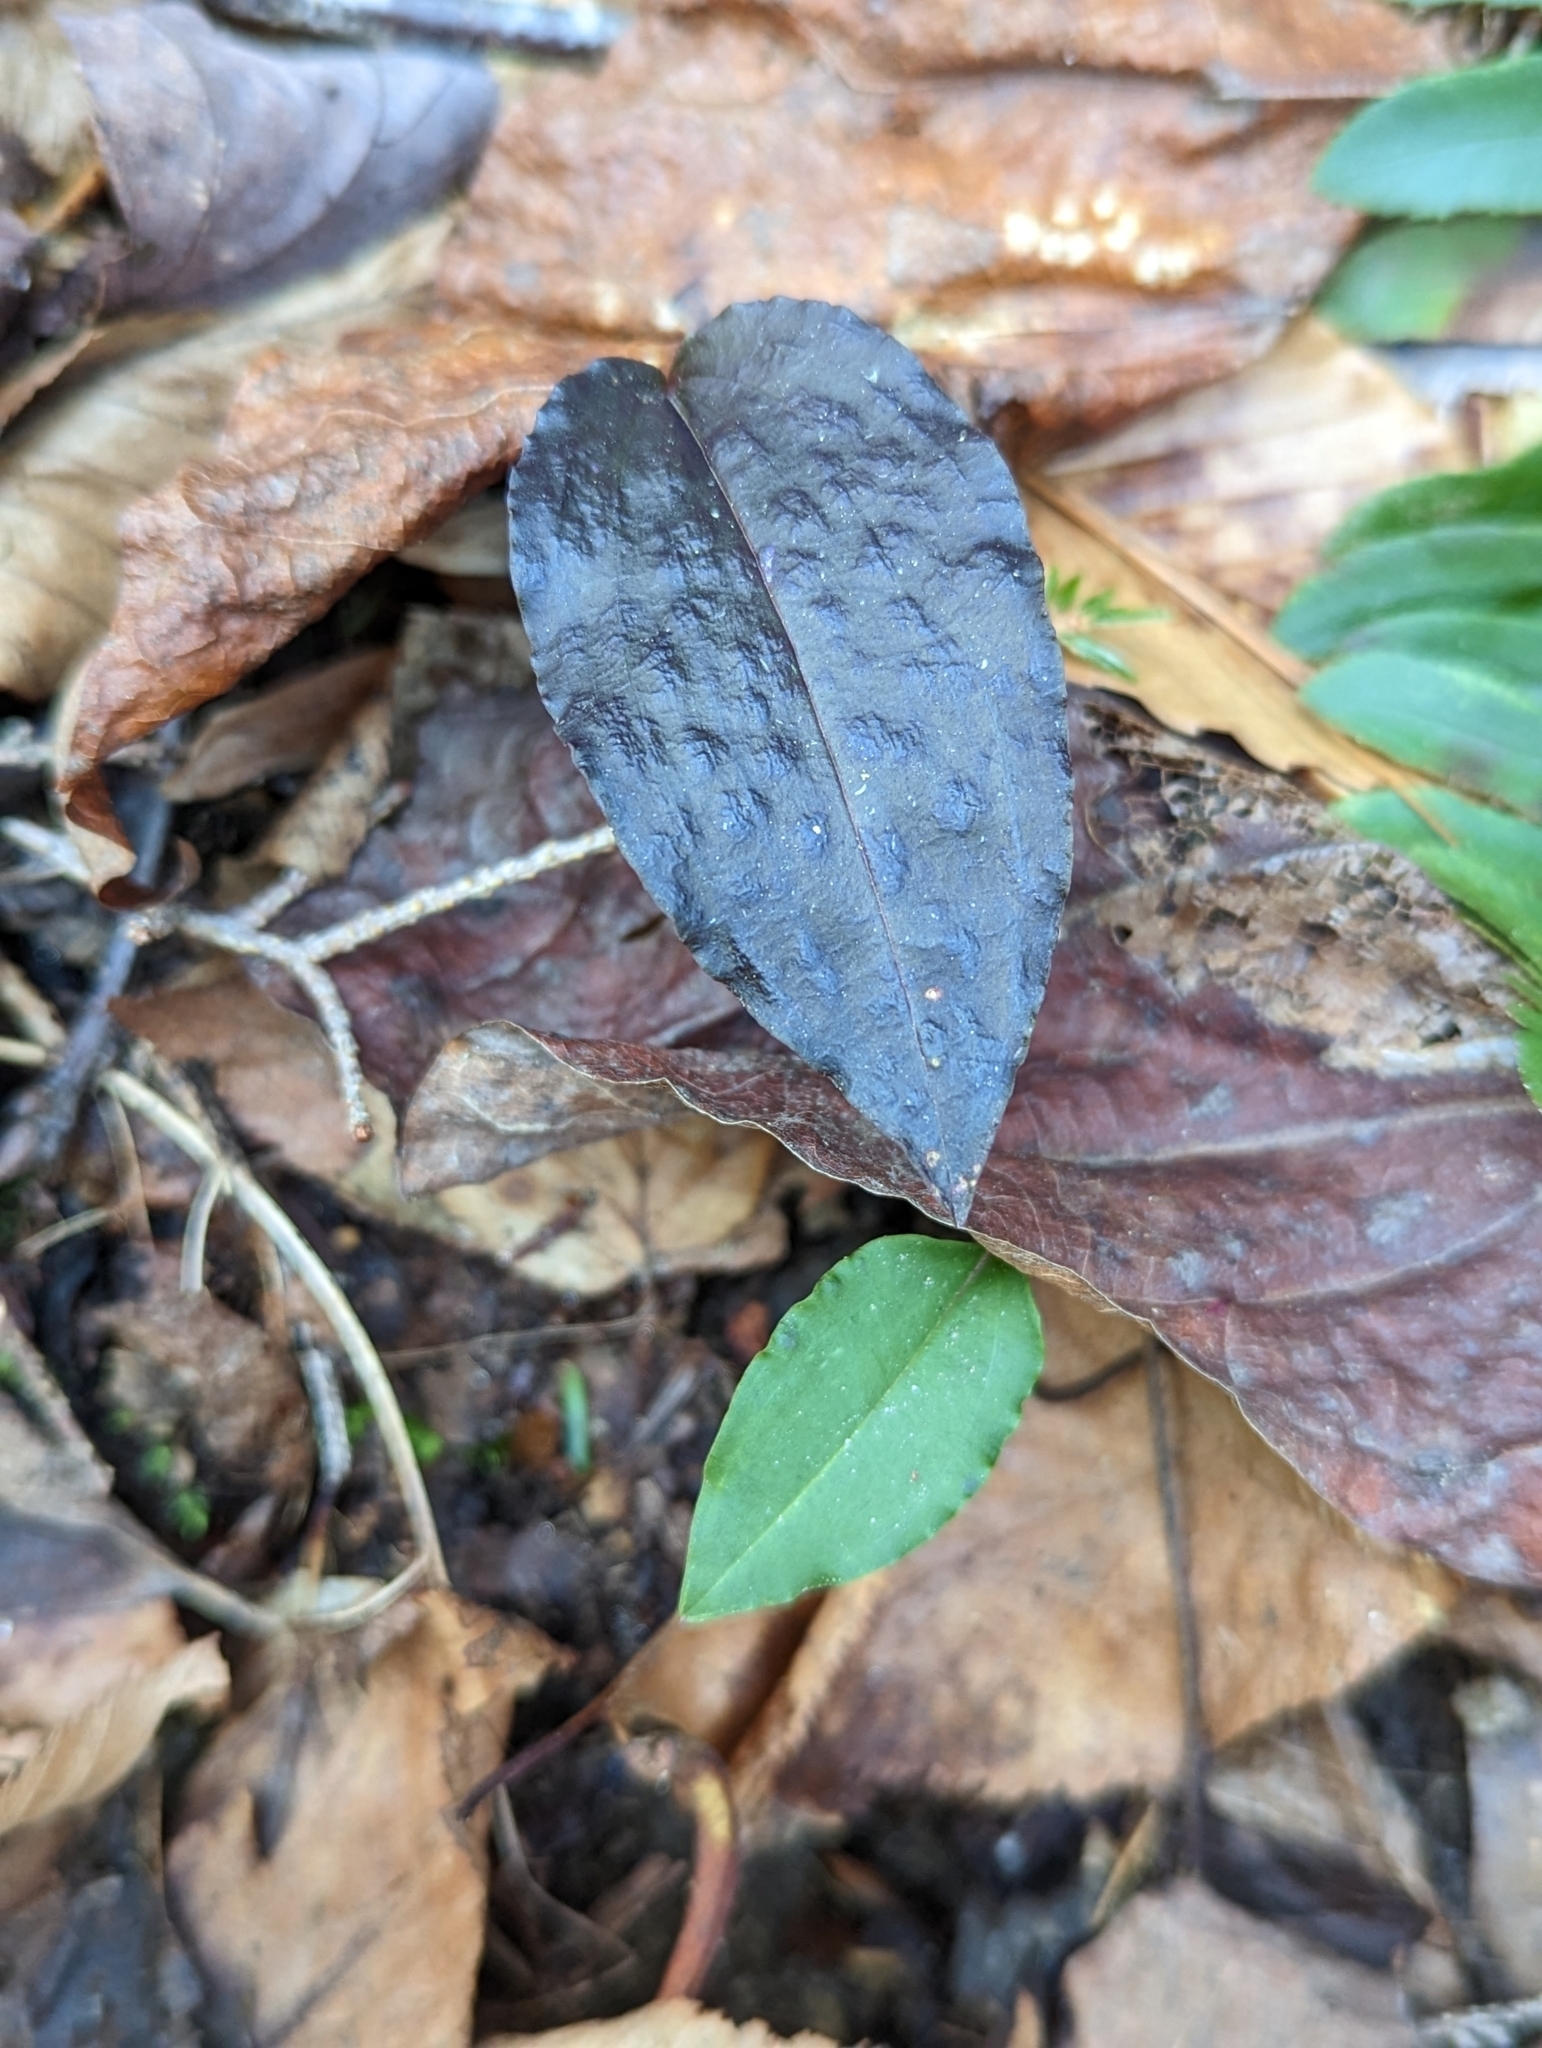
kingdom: Plantae
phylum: Tracheophyta
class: Liliopsida
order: Asparagales
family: Orchidaceae
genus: Tipularia
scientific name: Tipularia discolor
